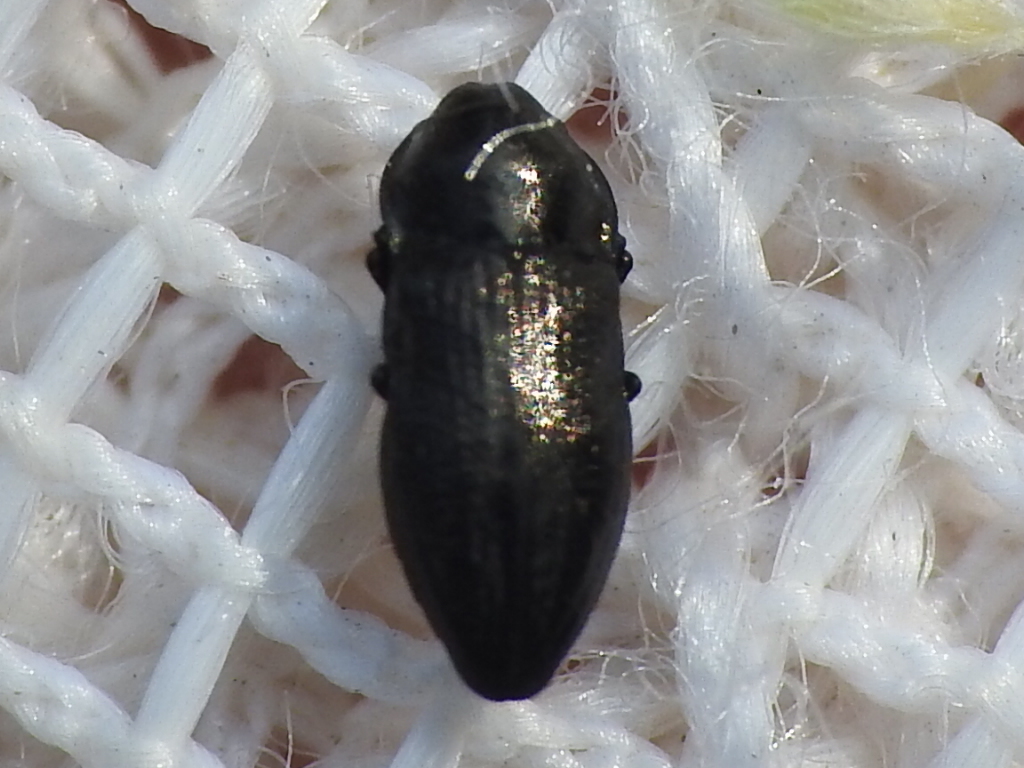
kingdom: Animalia
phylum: Arthropoda
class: Insecta
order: Coleoptera
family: Buprestidae
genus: Aphanisticus
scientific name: Aphanisticus cochinchinae
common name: Metallic wood-boring beetle
